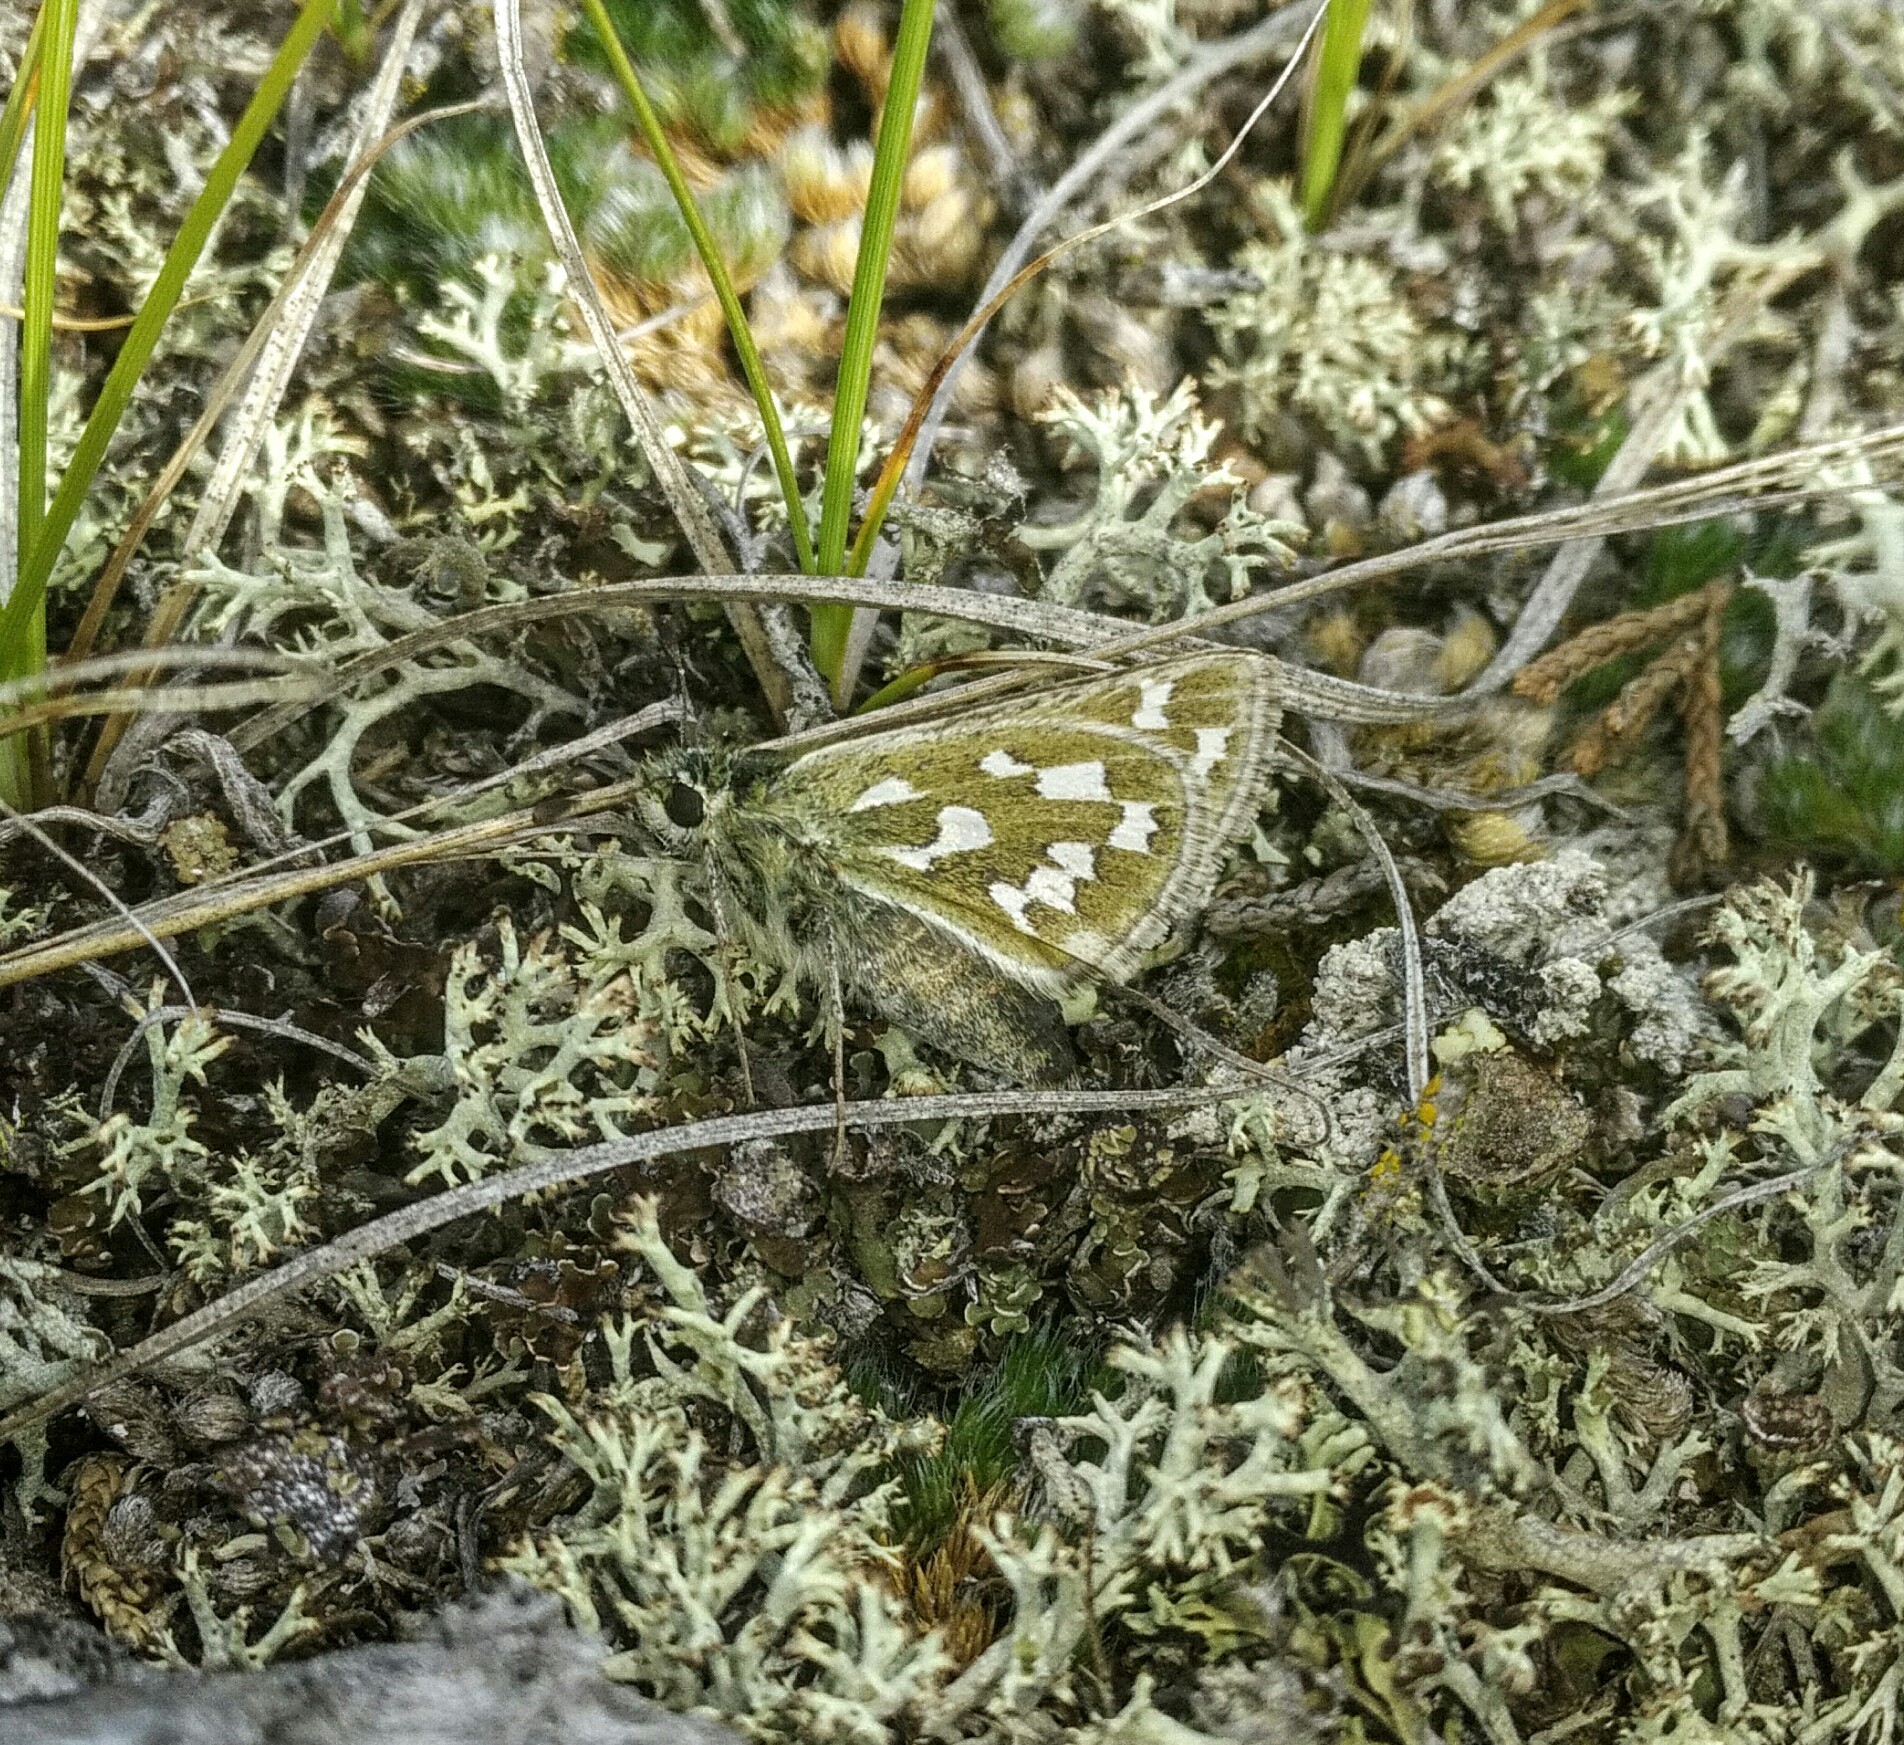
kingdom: Animalia
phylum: Arthropoda
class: Insecta
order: Lepidoptera
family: Hesperiidae
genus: Hesperia
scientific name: Hesperia nevada
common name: Nevada skipper
